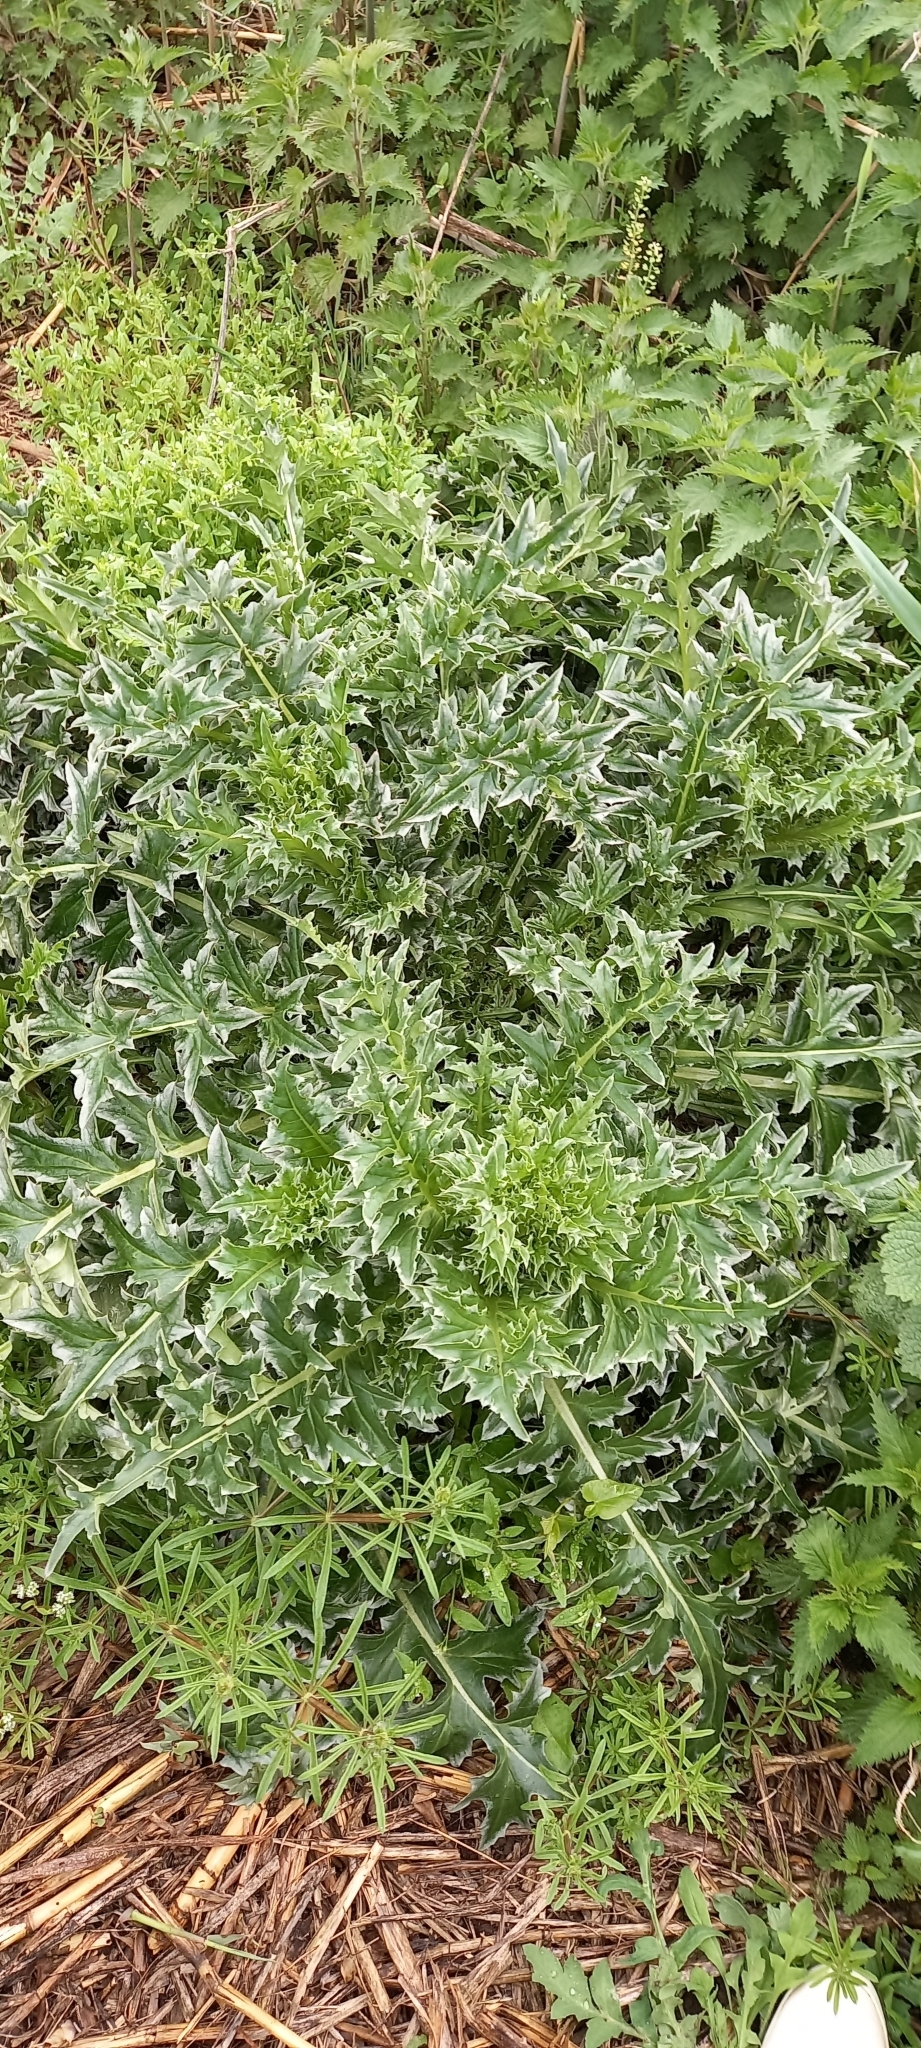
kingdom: Plantae
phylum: Tracheophyta
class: Magnoliopsida
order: Asterales
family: Asteraceae
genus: Carduus
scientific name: Carduus nutans
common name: Musk thistle
